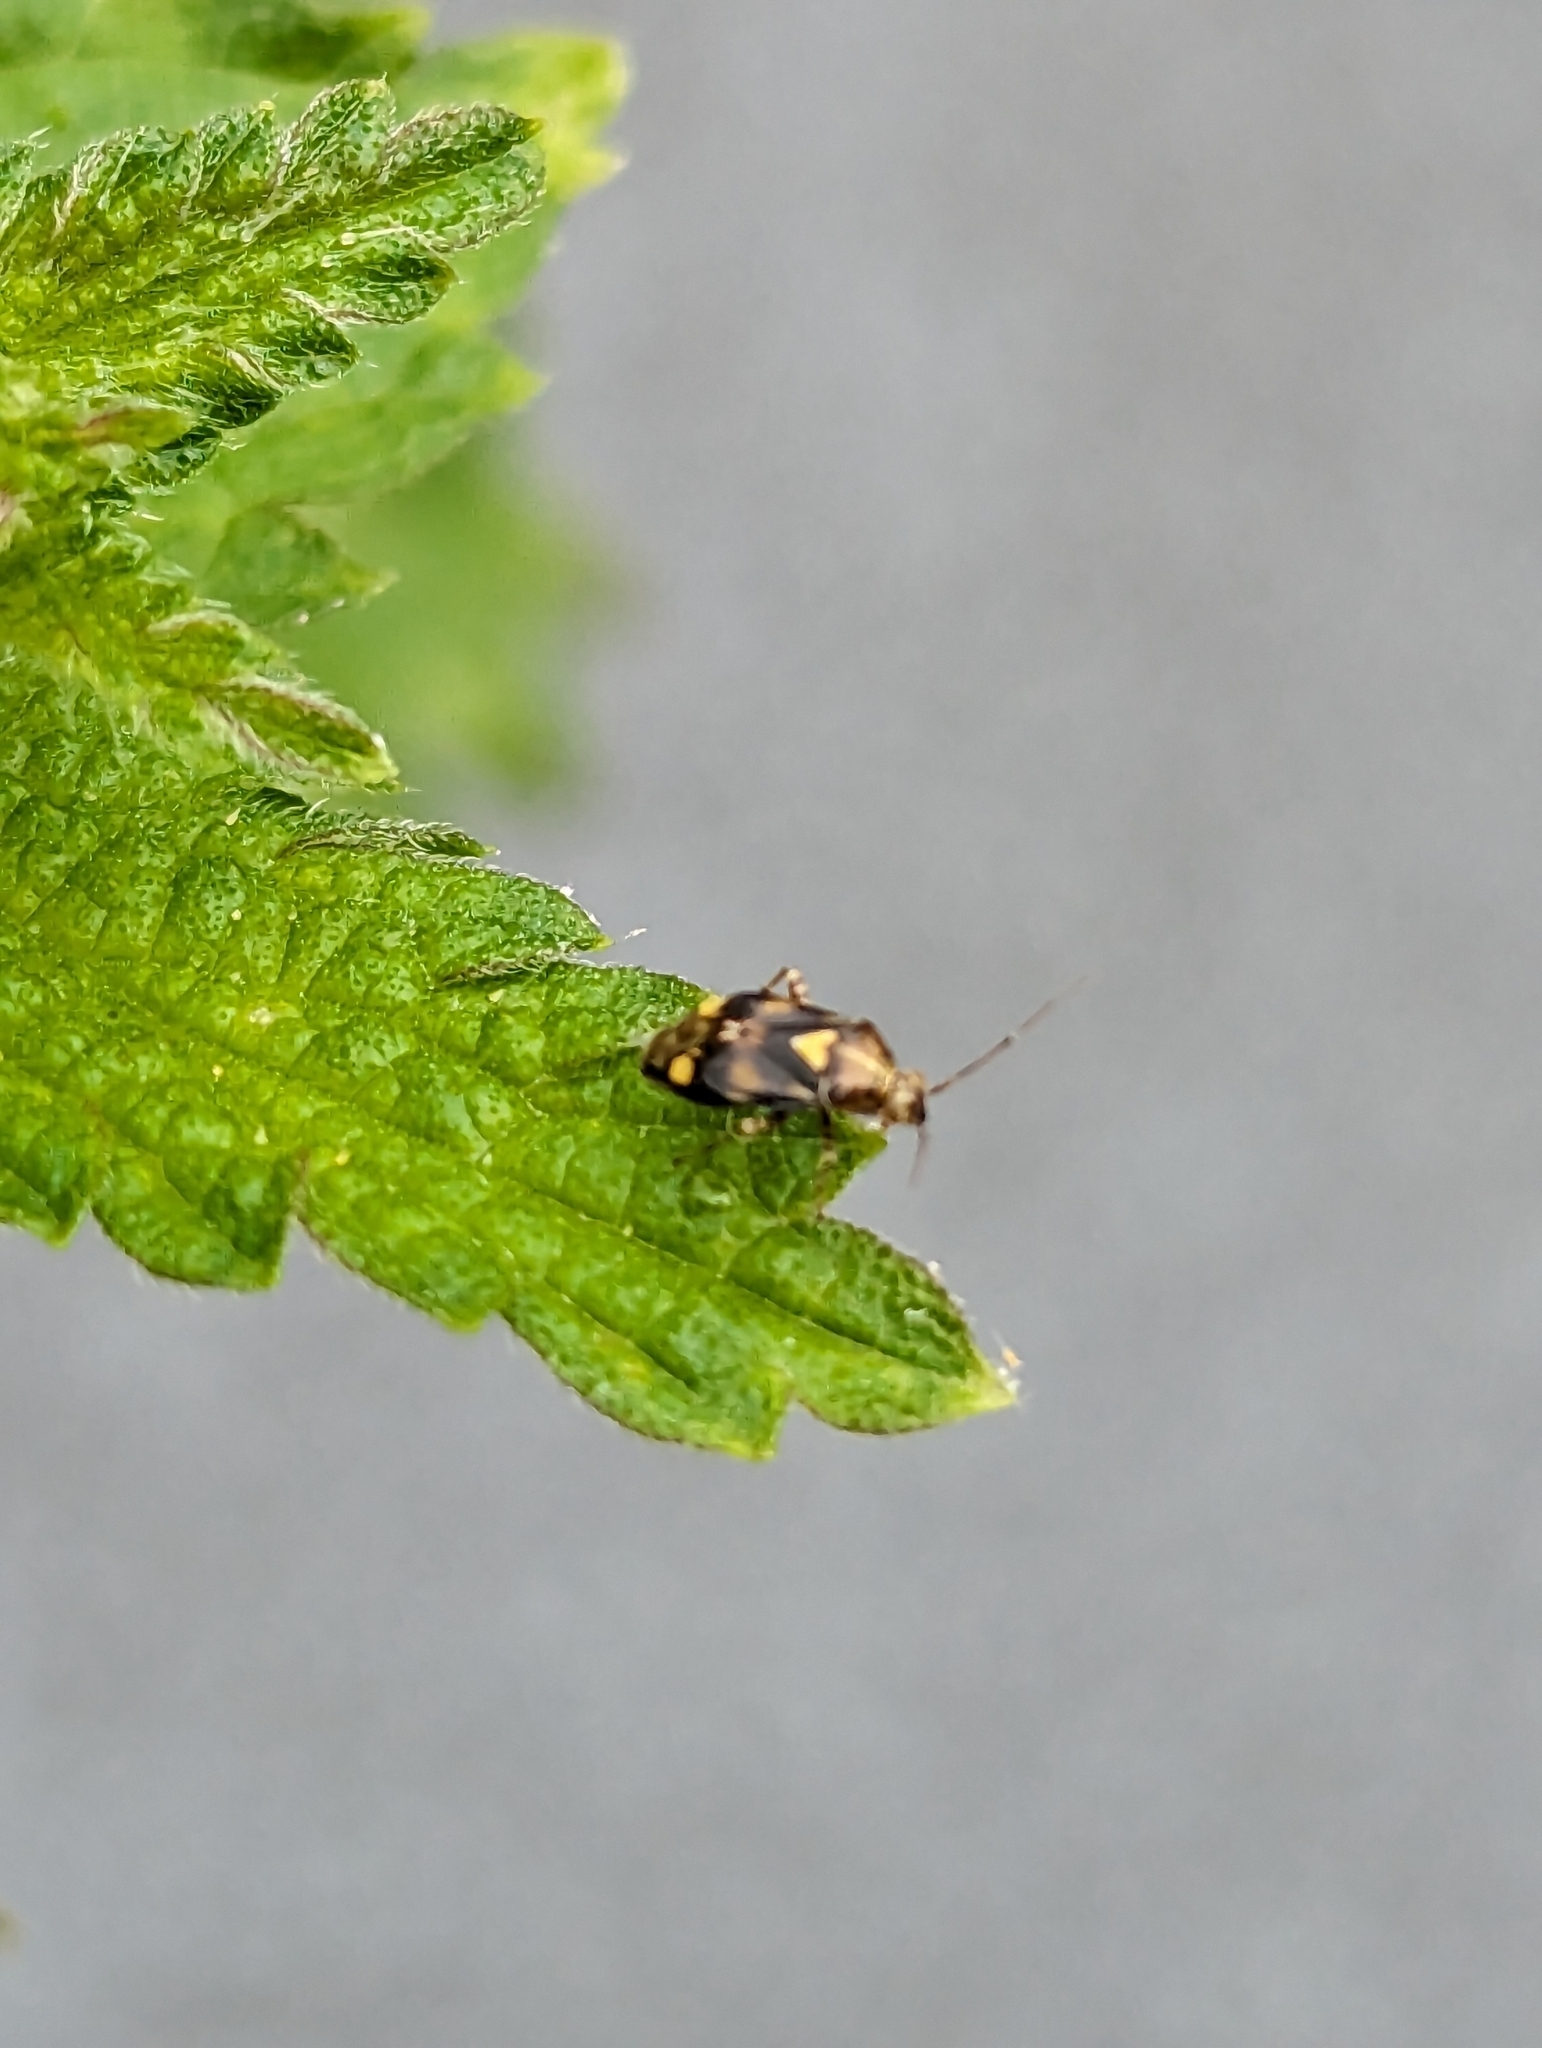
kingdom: Animalia
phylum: Arthropoda
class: Insecta
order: Hemiptera
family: Miridae
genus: Liocoris
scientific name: Liocoris tripustulatus
